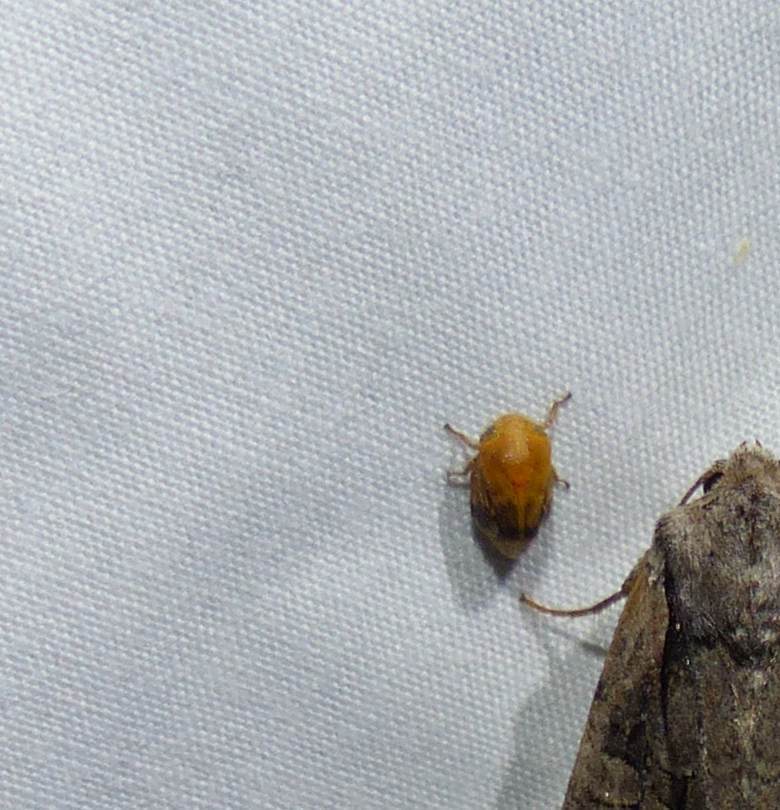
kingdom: Animalia
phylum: Arthropoda
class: Insecta
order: Hemiptera
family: Clastopteridae
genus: Clastoptera
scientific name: Clastoptera achatina
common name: Pecan spittlebug
